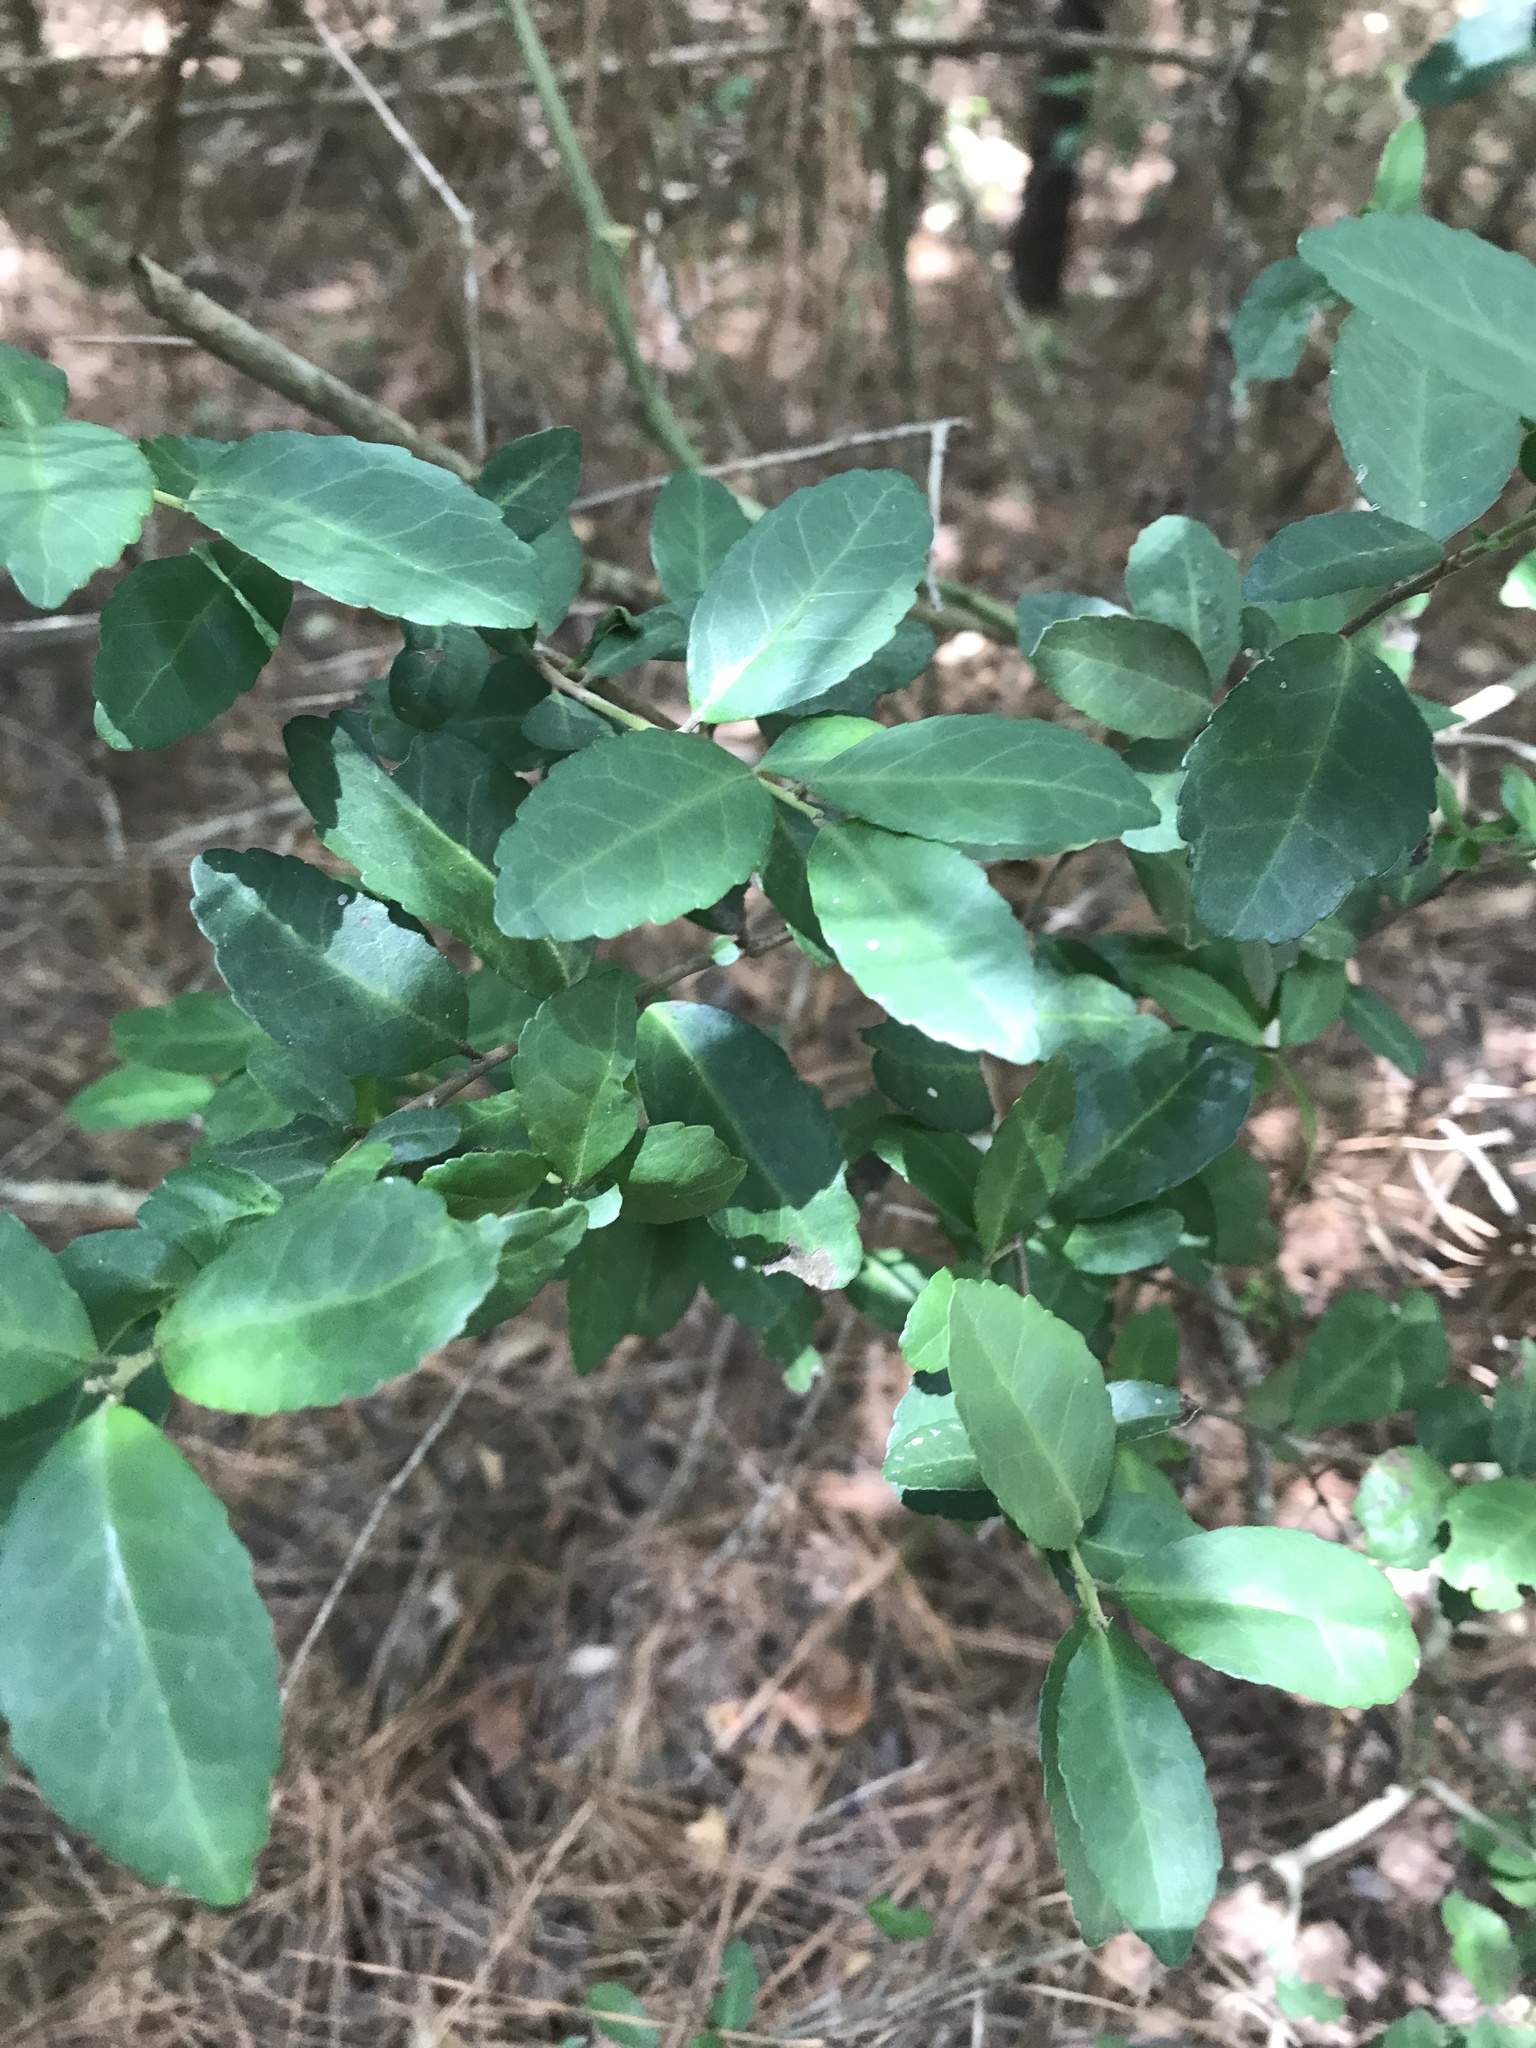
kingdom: Plantae
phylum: Tracheophyta
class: Magnoliopsida
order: Aquifoliales
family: Aquifoliaceae
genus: Ilex
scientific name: Ilex vomitoria
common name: Yaupon holly
